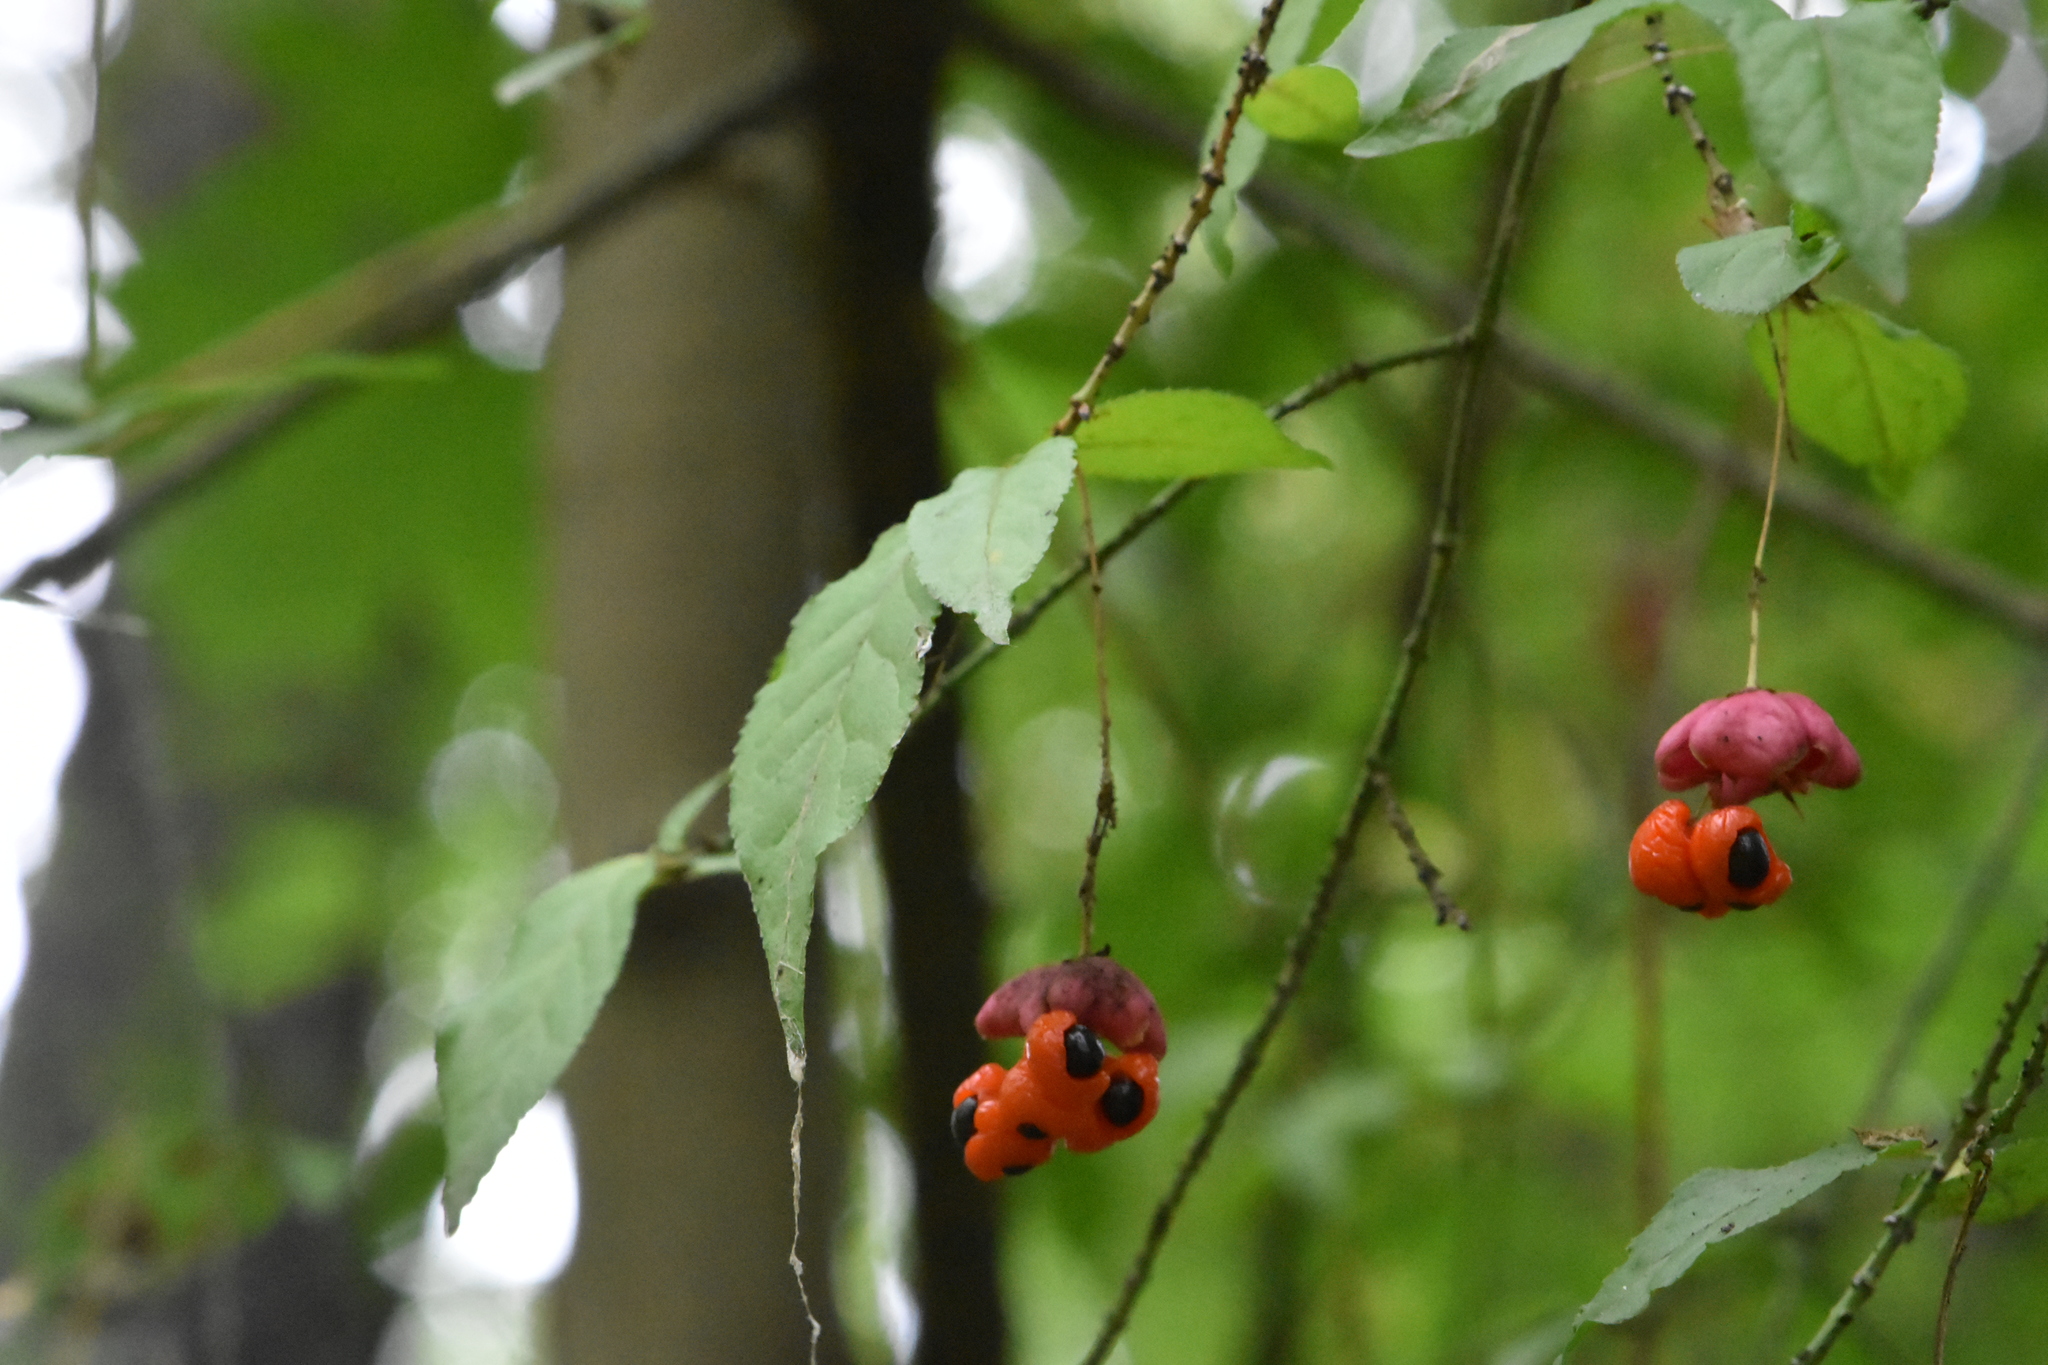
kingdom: Plantae
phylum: Tracheophyta
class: Magnoliopsida
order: Celastrales
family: Celastraceae
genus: Euonymus
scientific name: Euonymus verrucosus
